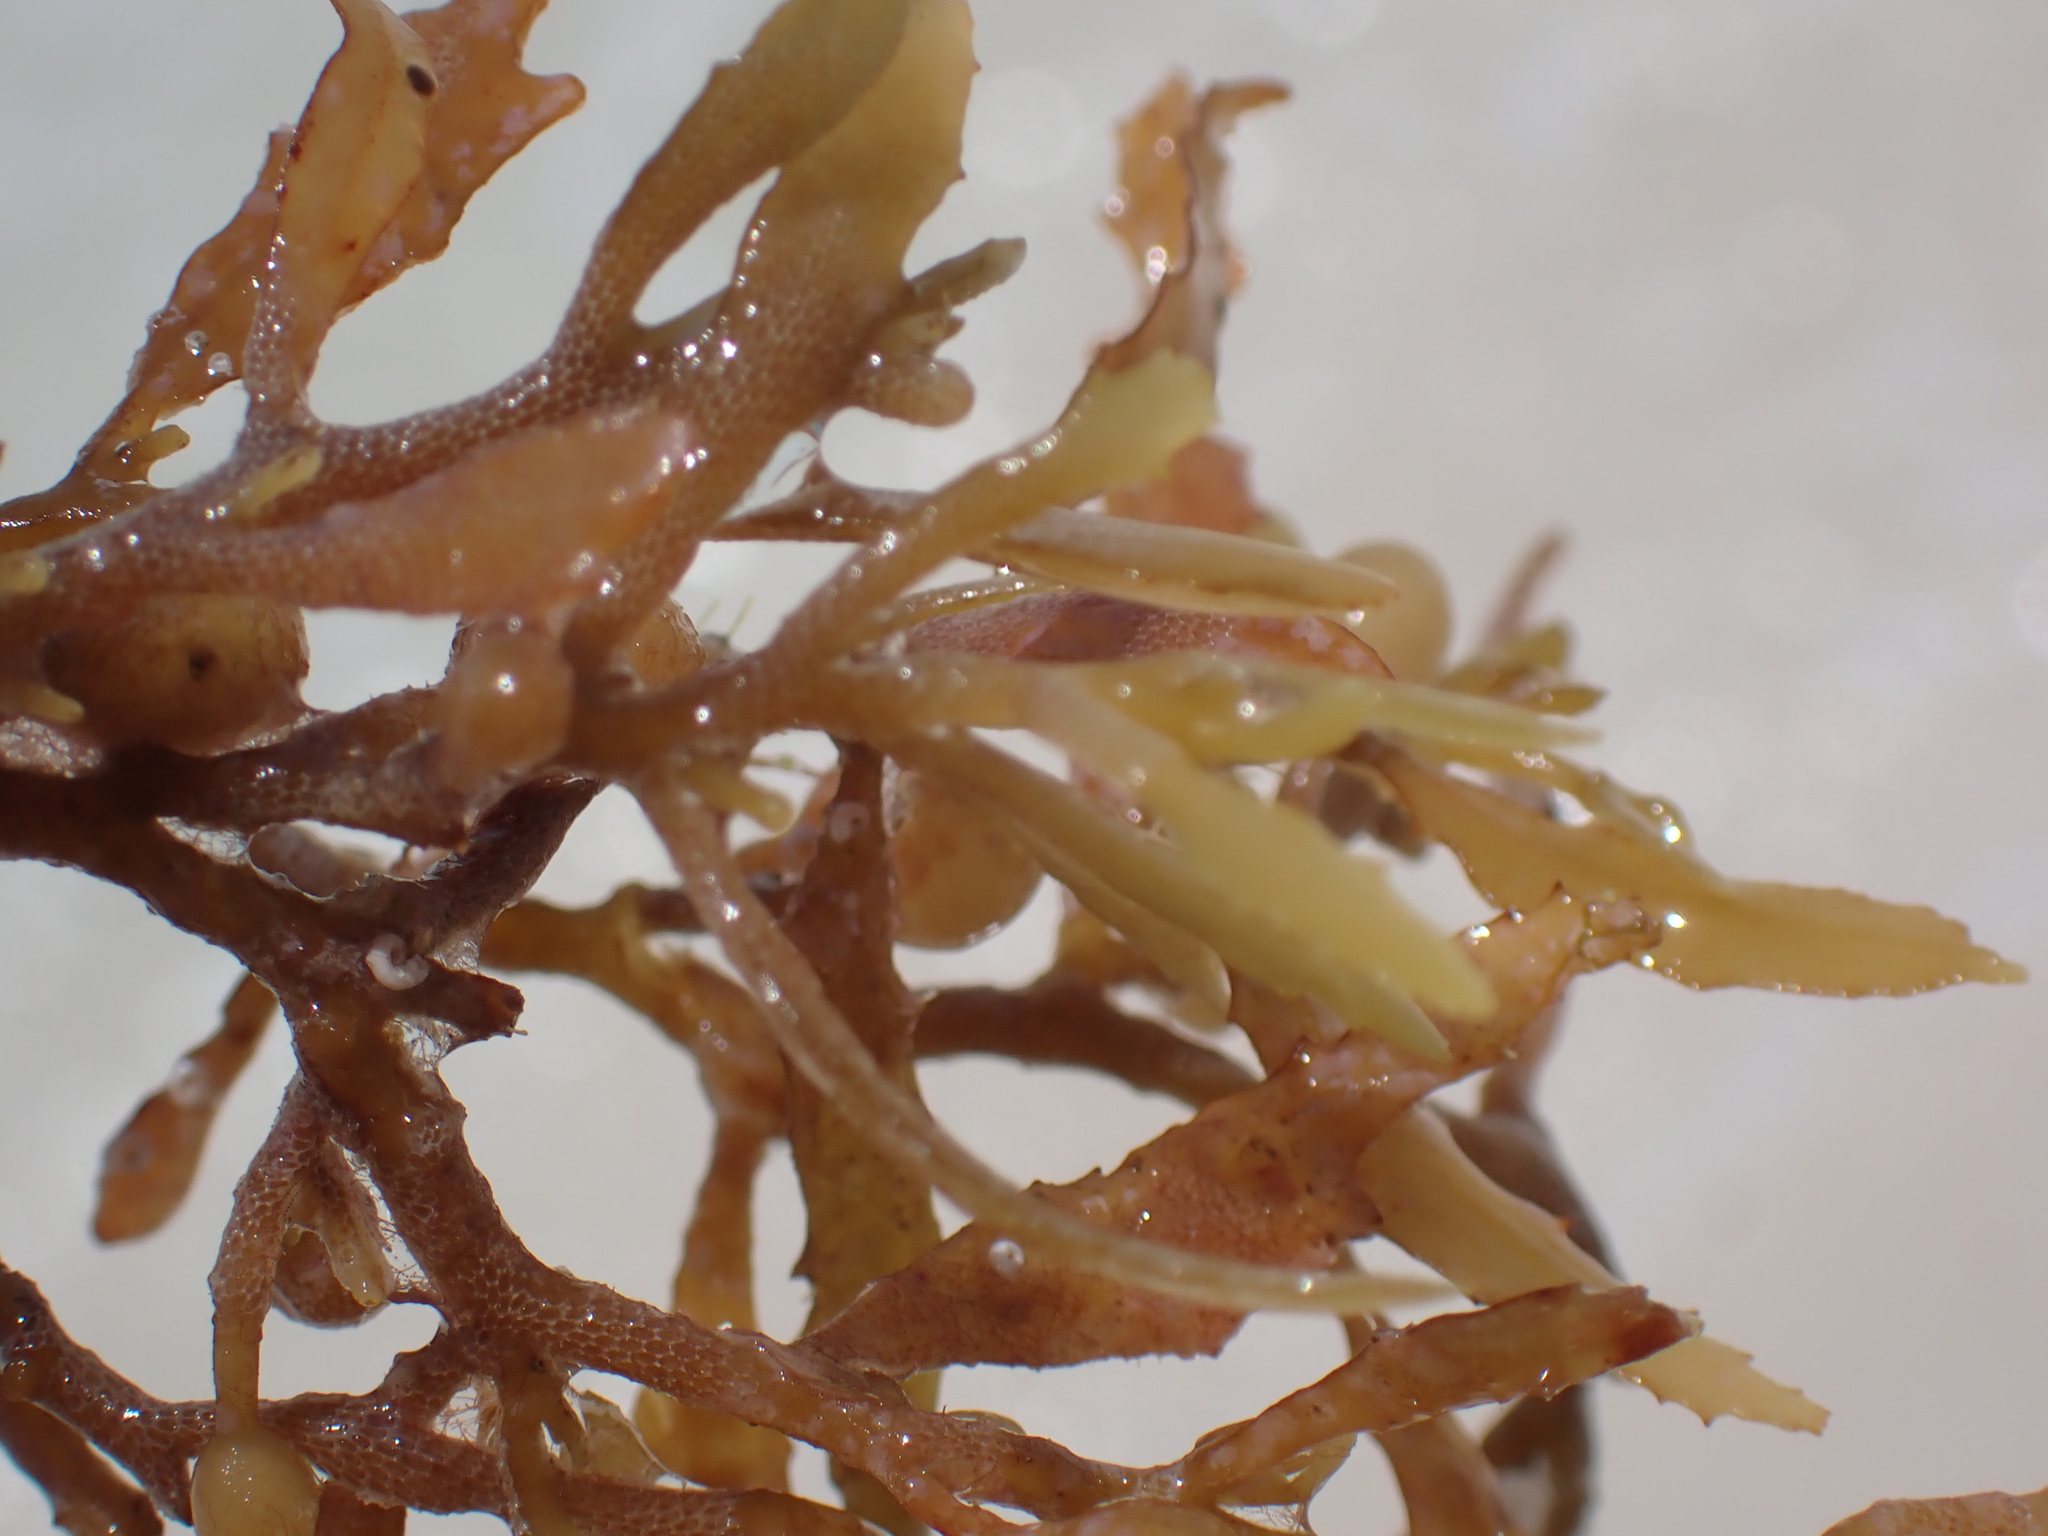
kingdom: Chromista
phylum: Ochrophyta
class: Phaeophyceae
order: Fucales
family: Sargassaceae
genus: Sargassum
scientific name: Sargassum fluitans
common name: Sargassum seaweed
